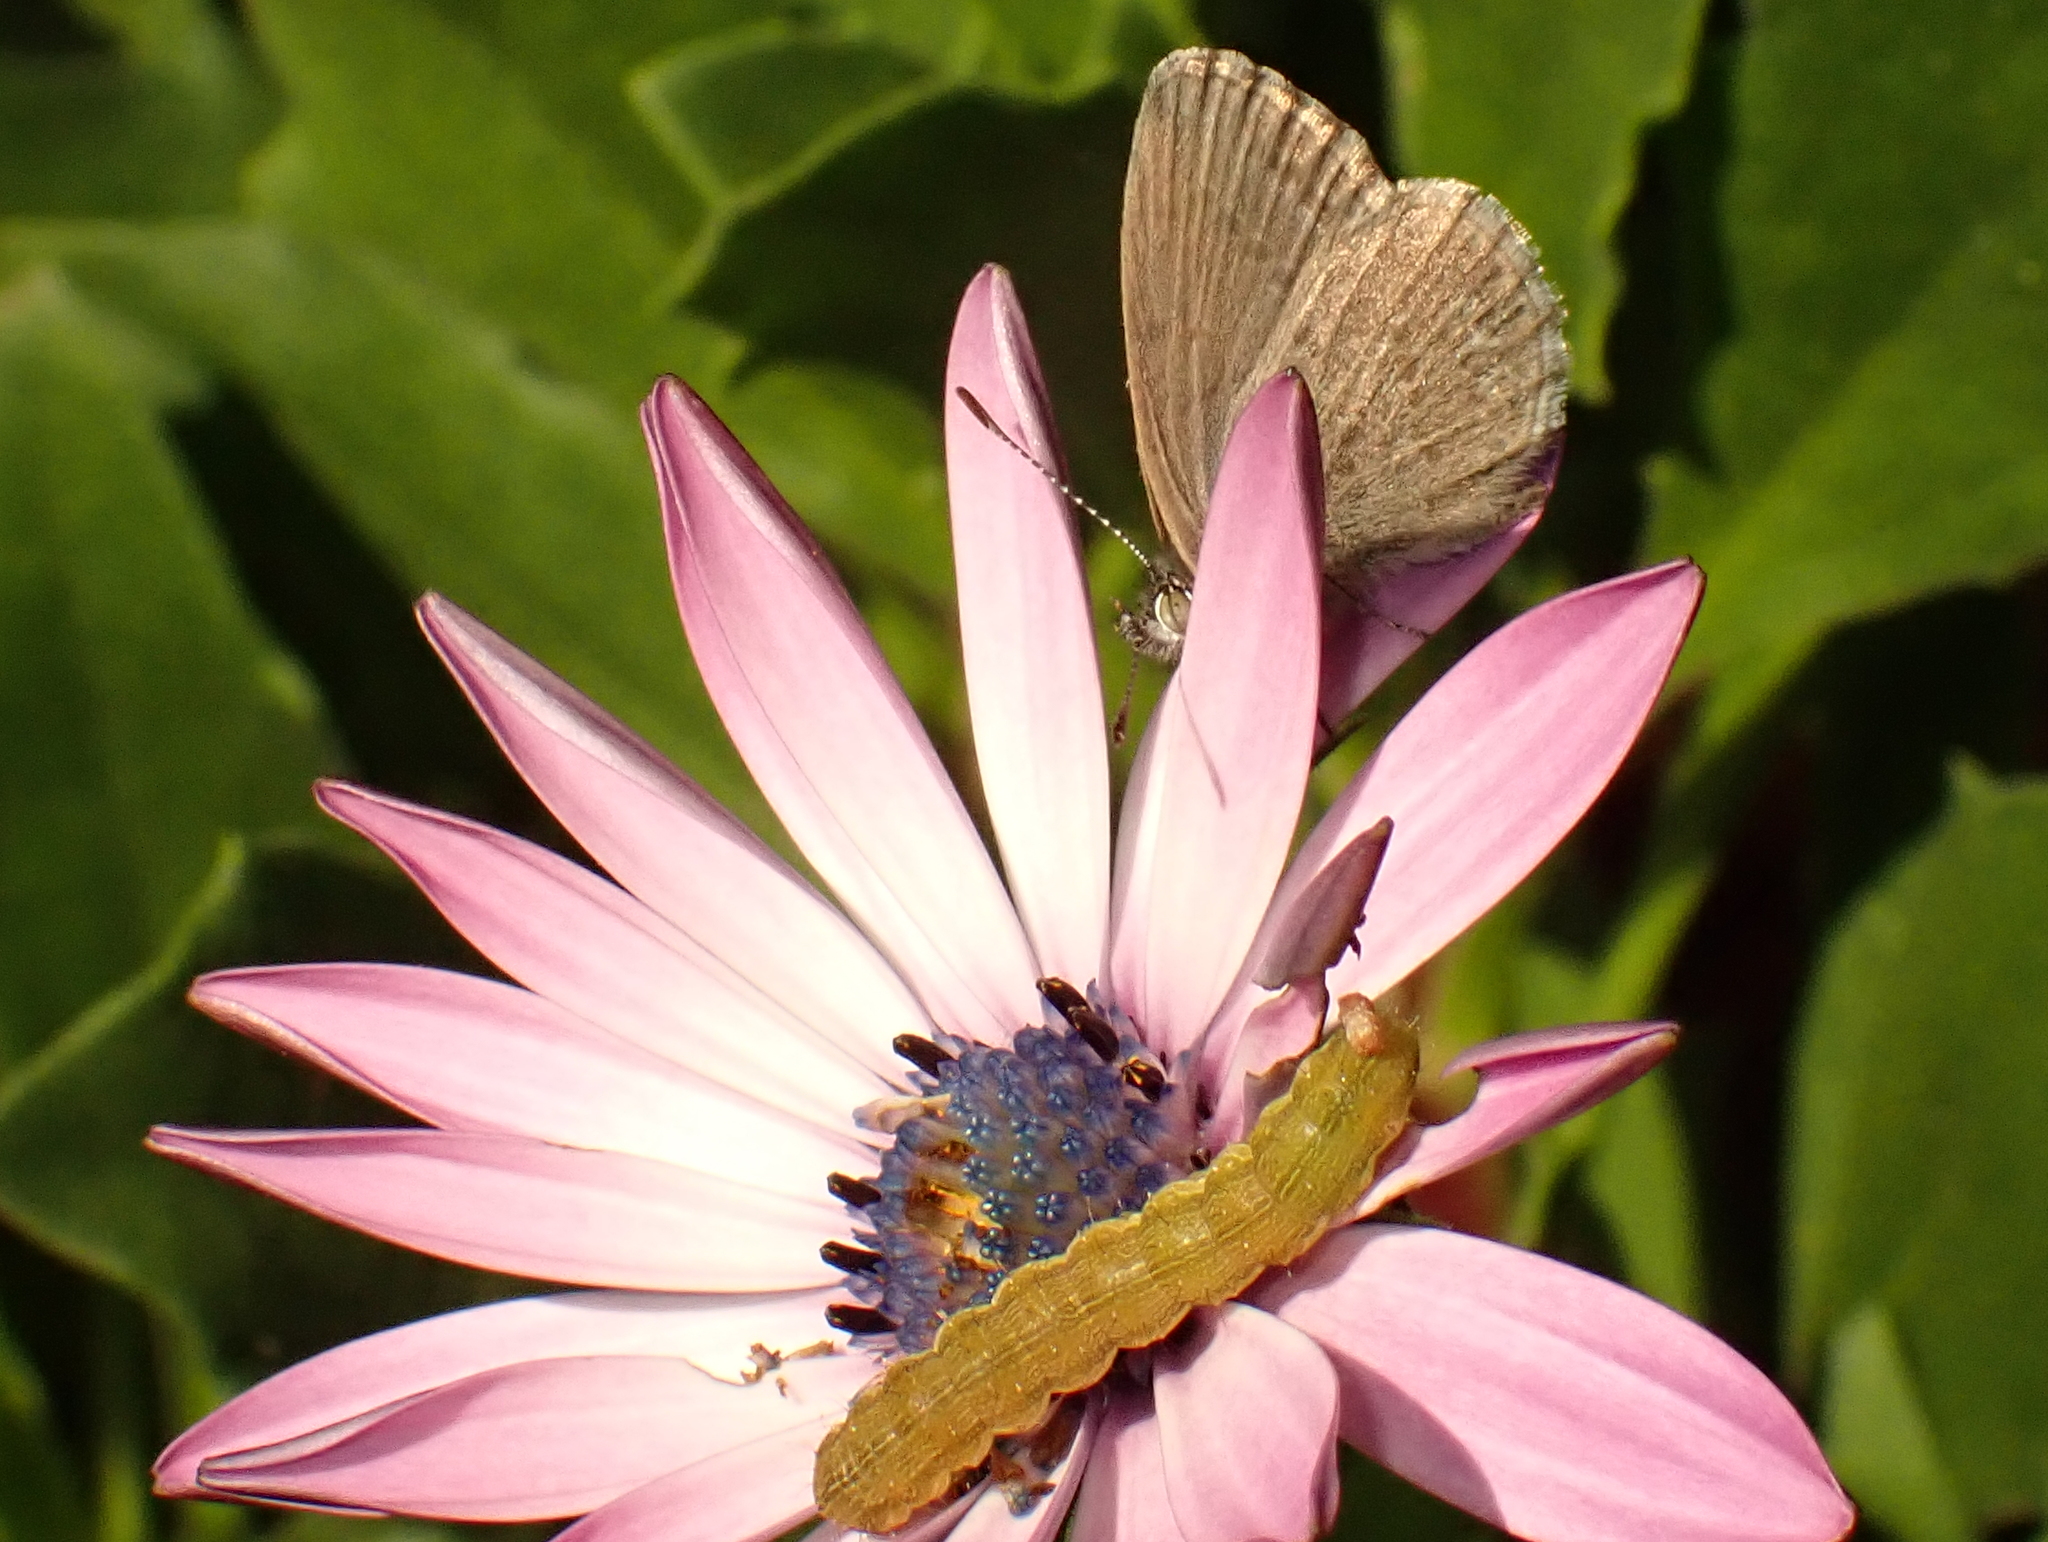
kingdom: Animalia
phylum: Arthropoda
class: Insecta
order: Lepidoptera
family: Lycaenidae
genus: Zizina
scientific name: Zizina labradus
